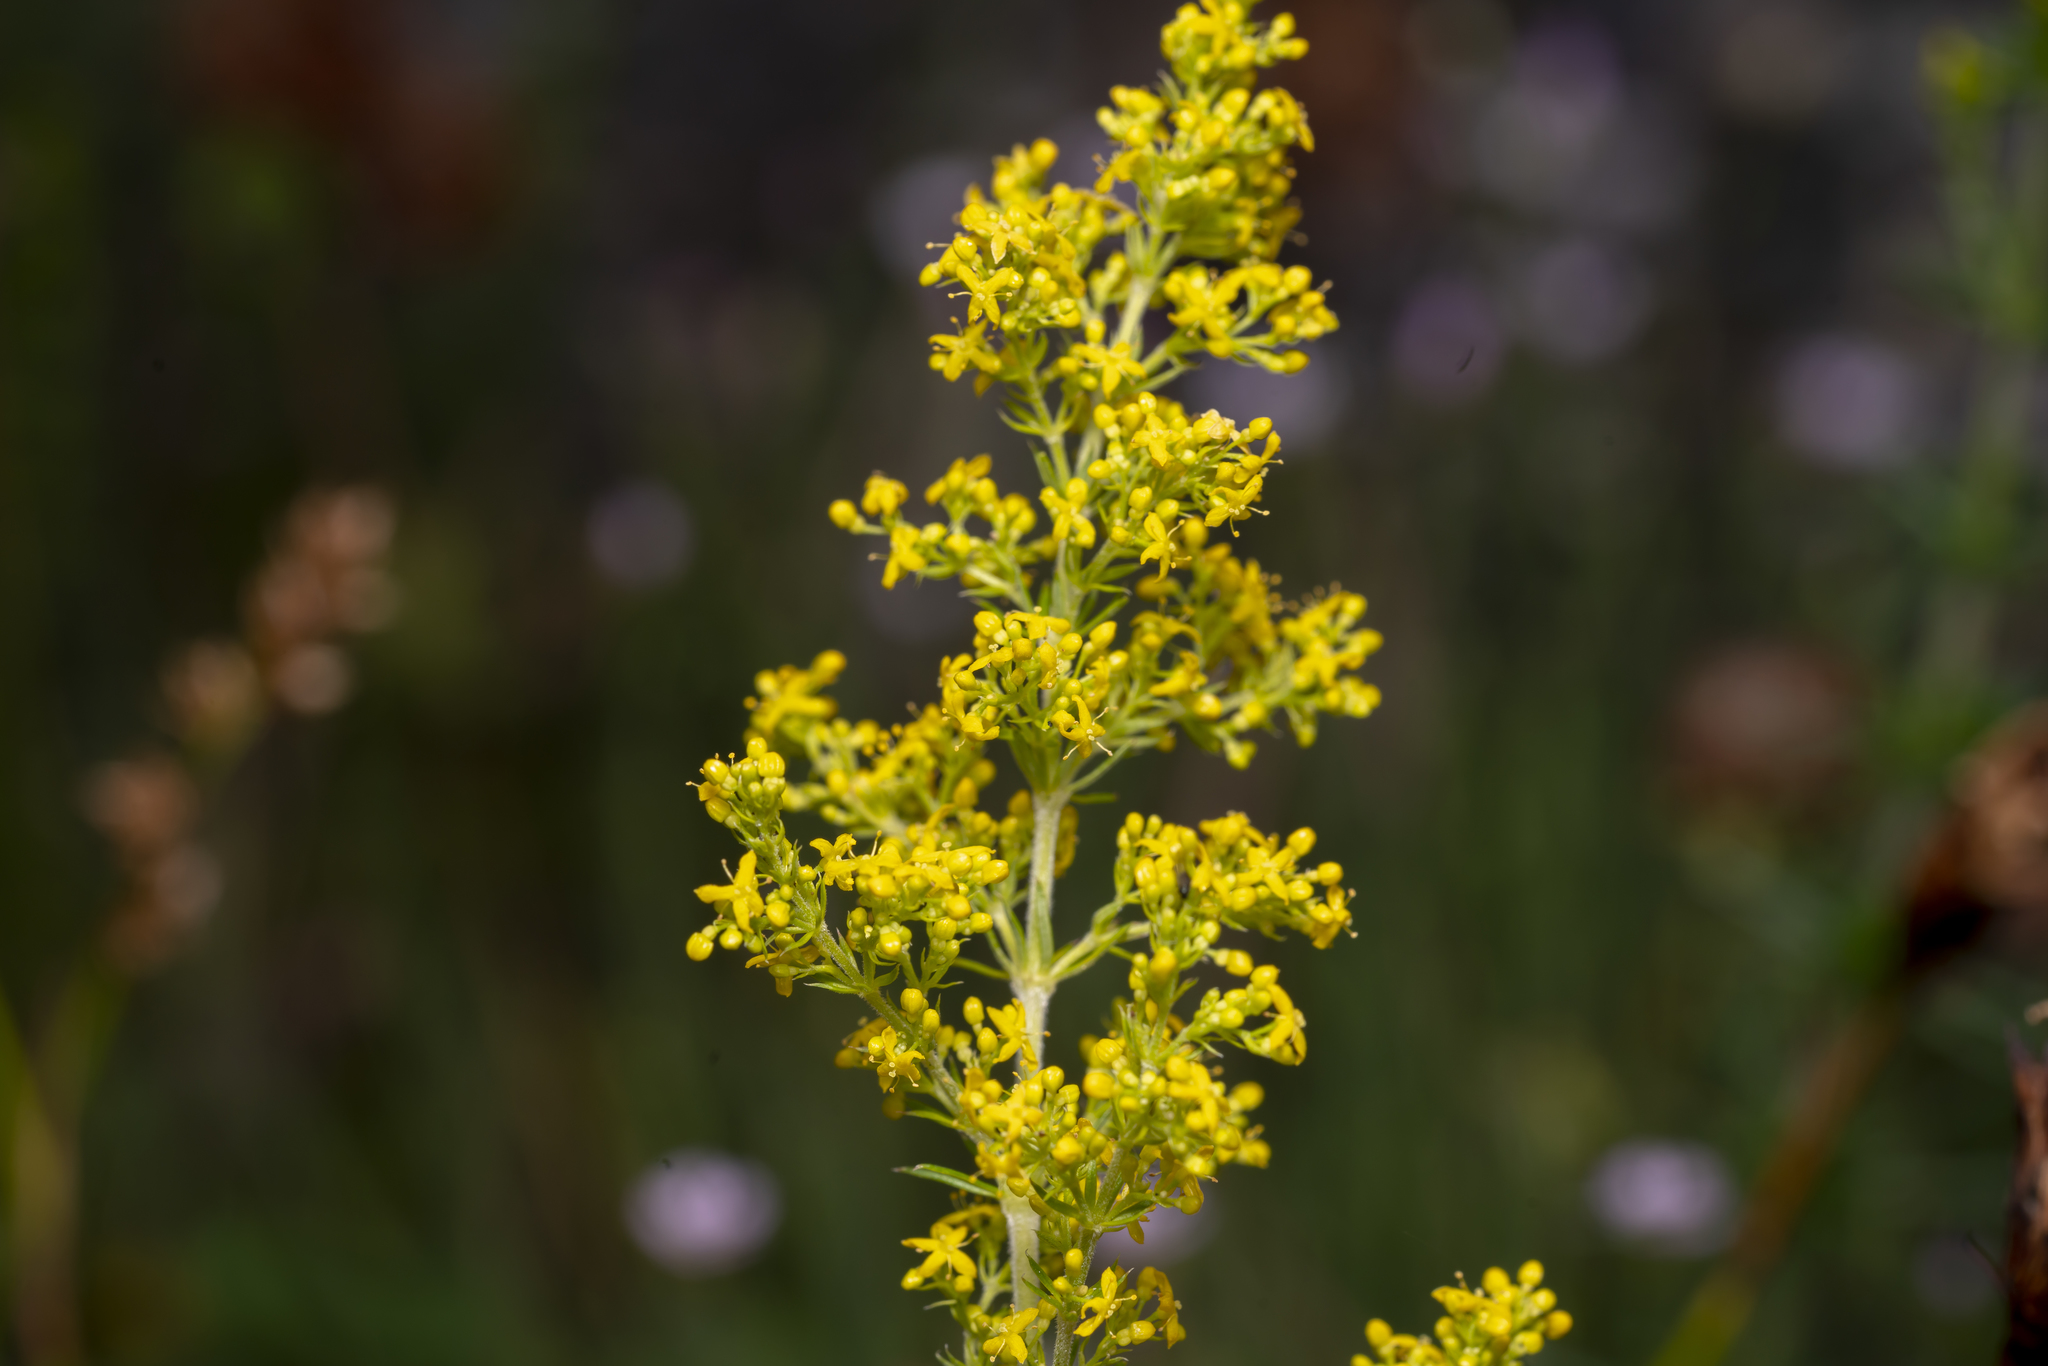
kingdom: Plantae
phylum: Tracheophyta
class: Magnoliopsida
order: Gentianales
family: Rubiaceae
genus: Galium
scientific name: Galium verum
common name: Lady's bedstraw
